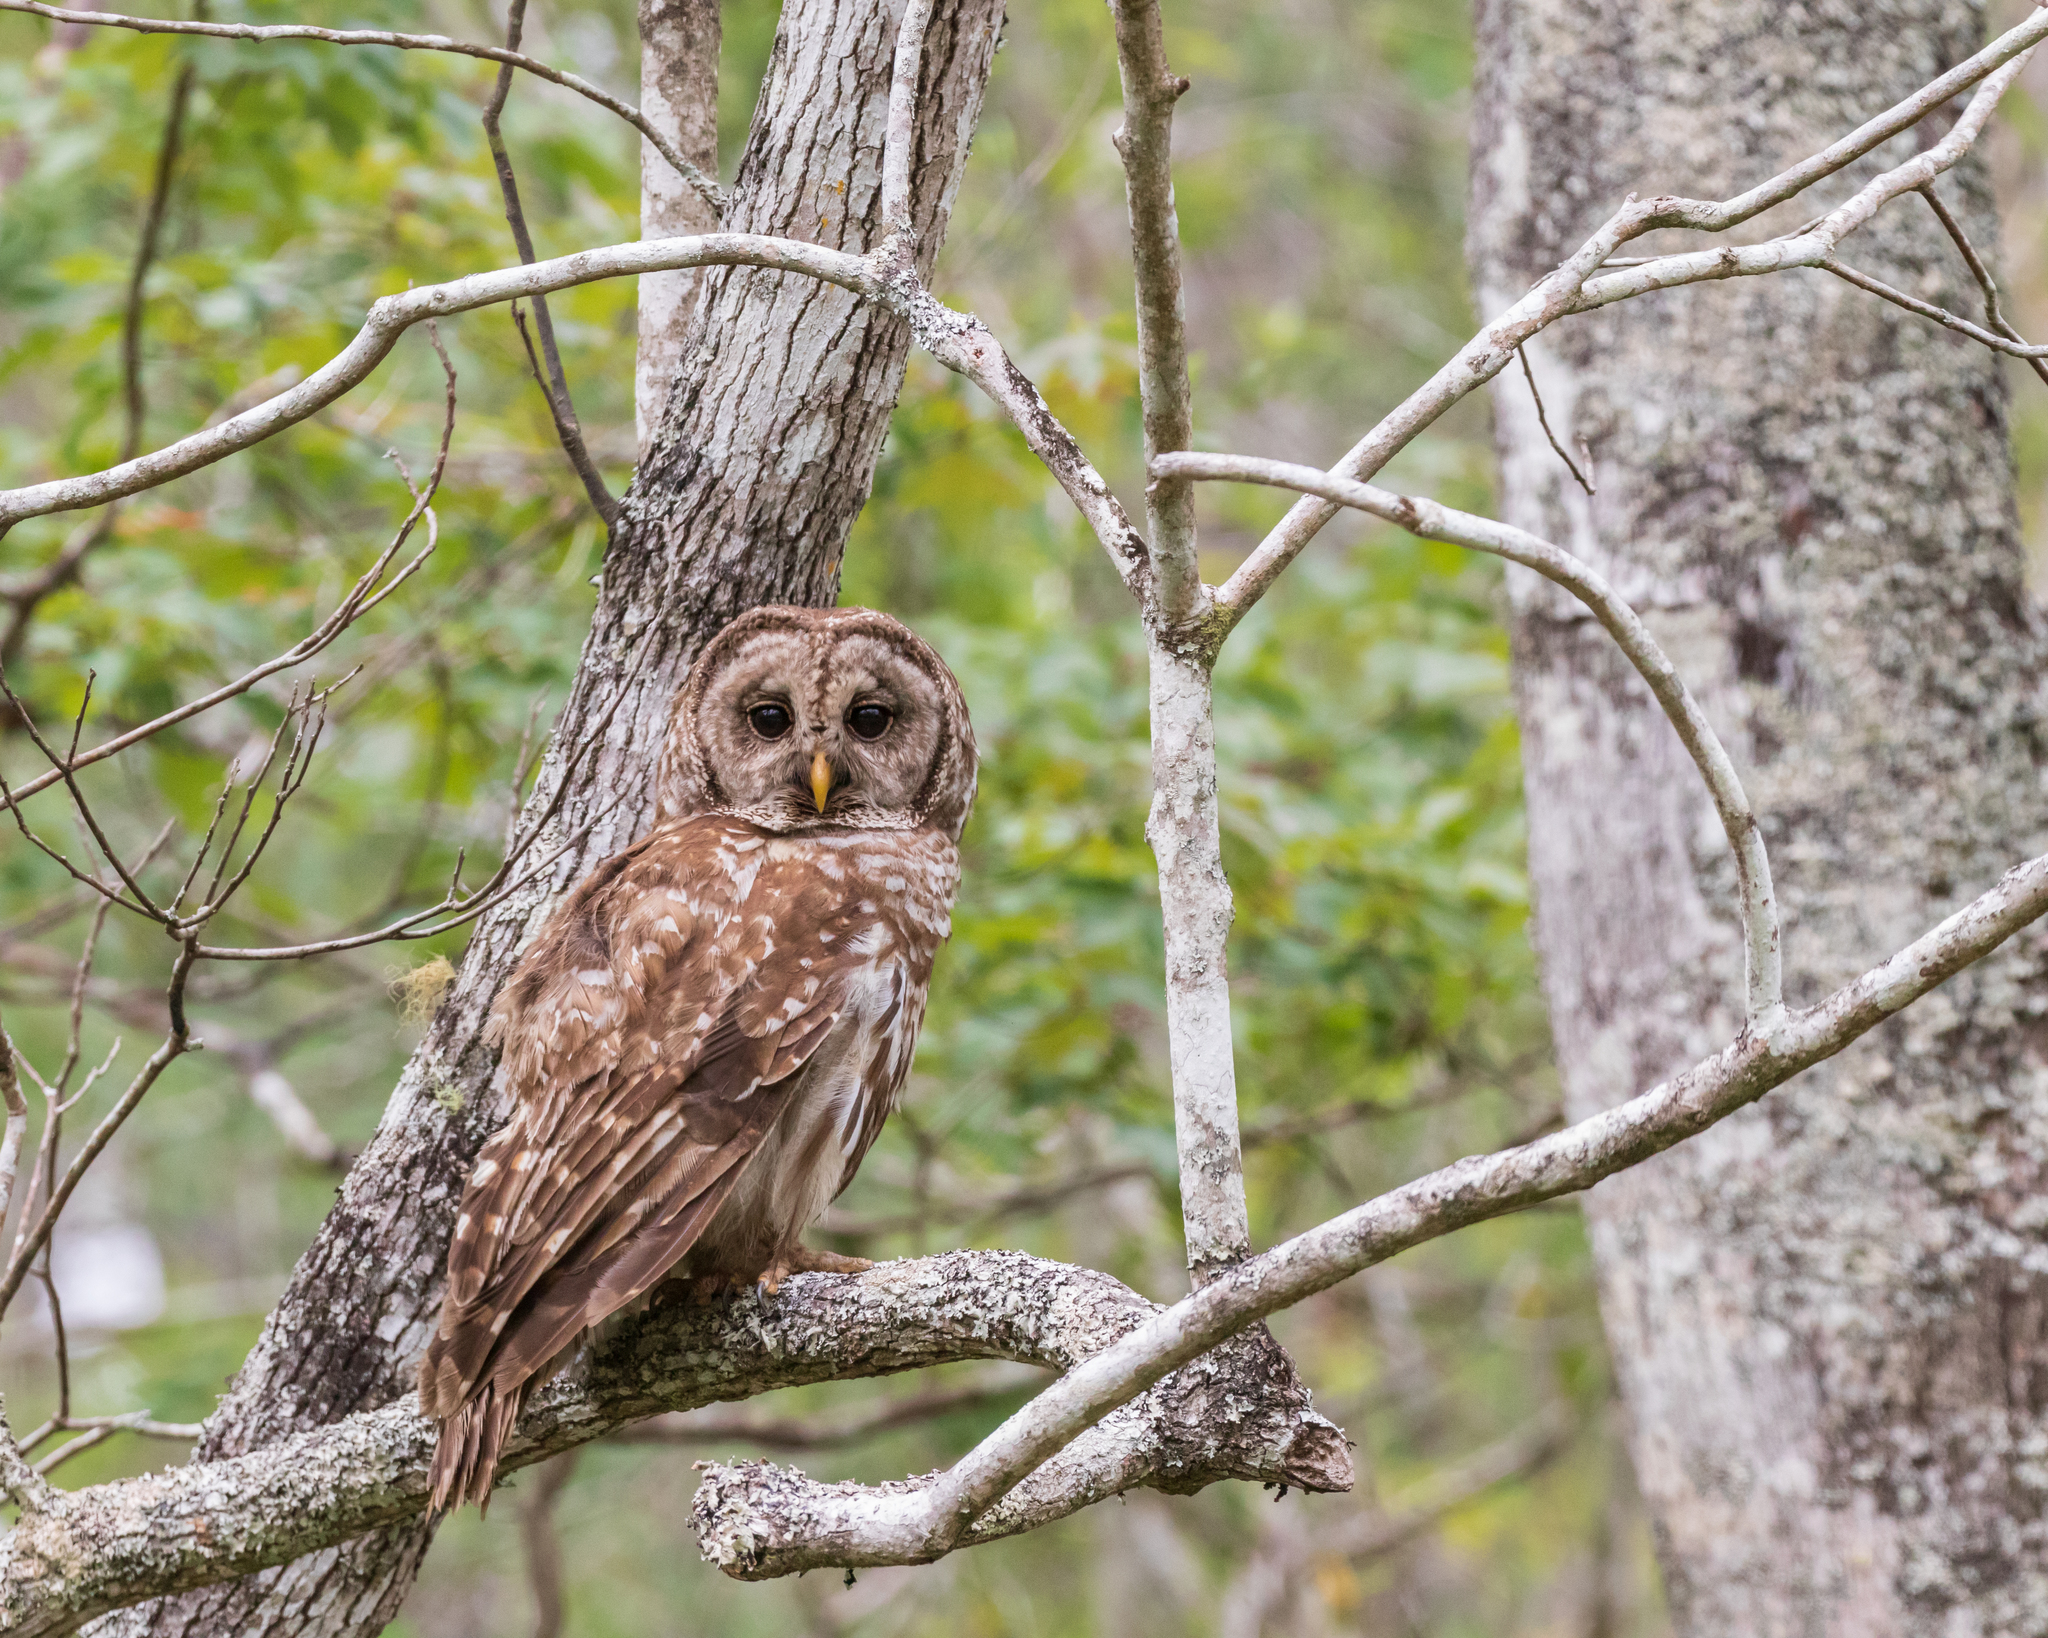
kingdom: Animalia
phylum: Chordata
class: Aves
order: Strigiformes
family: Strigidae
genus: Strix
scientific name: Strix varia
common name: Barred owl
